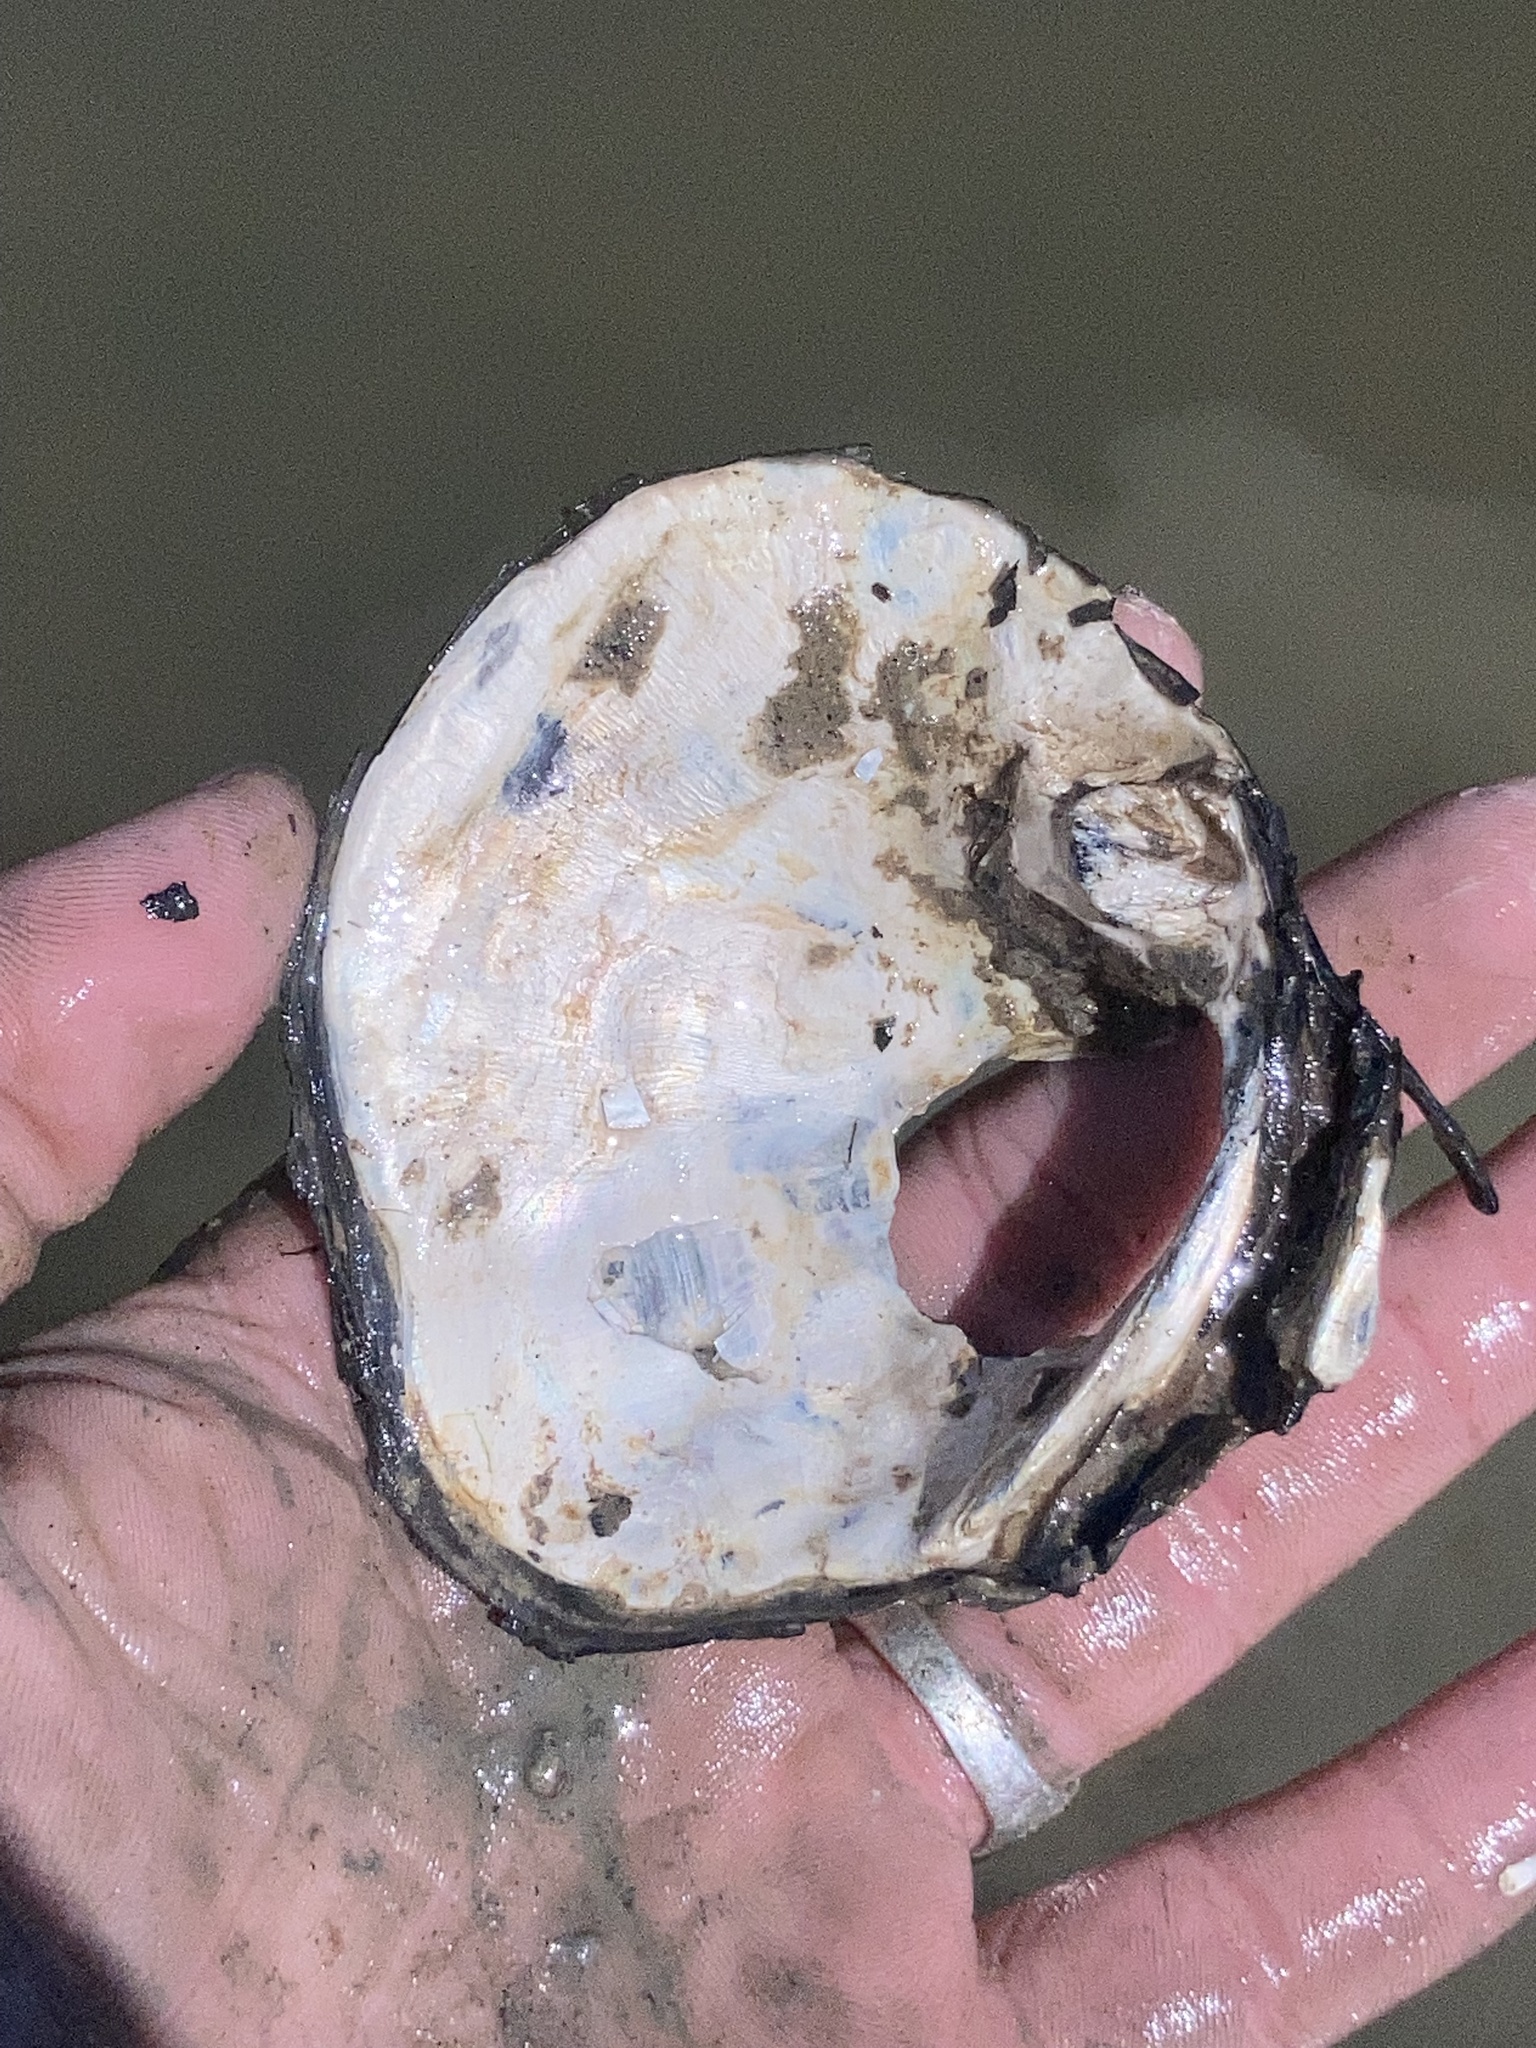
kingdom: Animalia
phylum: Mollusca
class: Bivalvia
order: Unionida
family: Unionidae
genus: Quadrula
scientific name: Quadrula quadrula
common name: Mapleleaf
